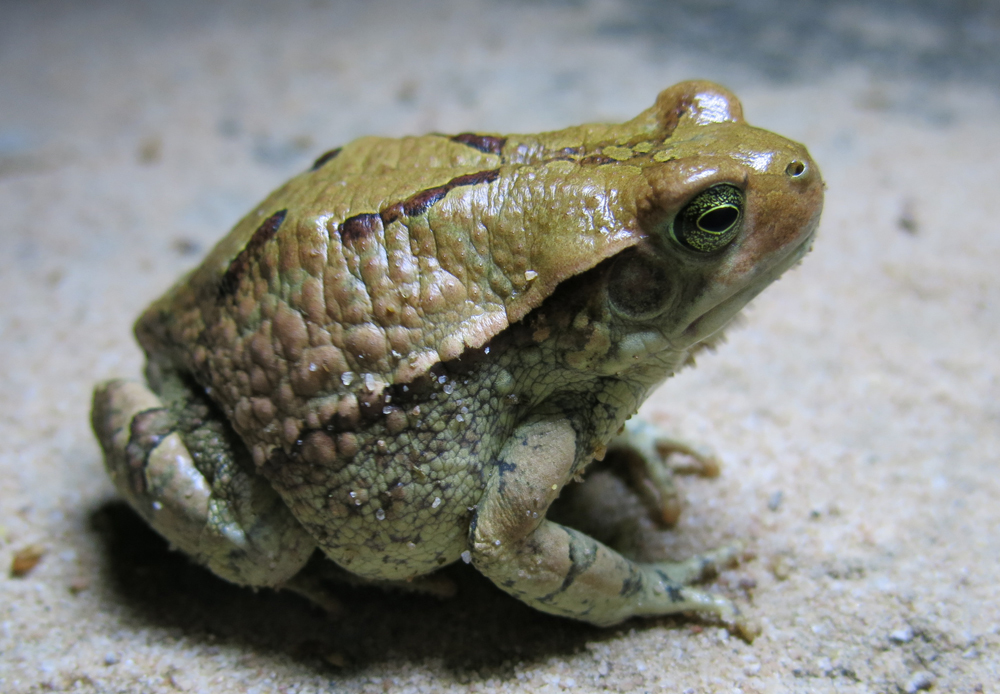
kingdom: Animalia
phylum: Chordata
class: Amphibia
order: Anura
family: Bufonidae
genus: Schismaderma
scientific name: Schismaderma carens
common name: African split-skin toad
